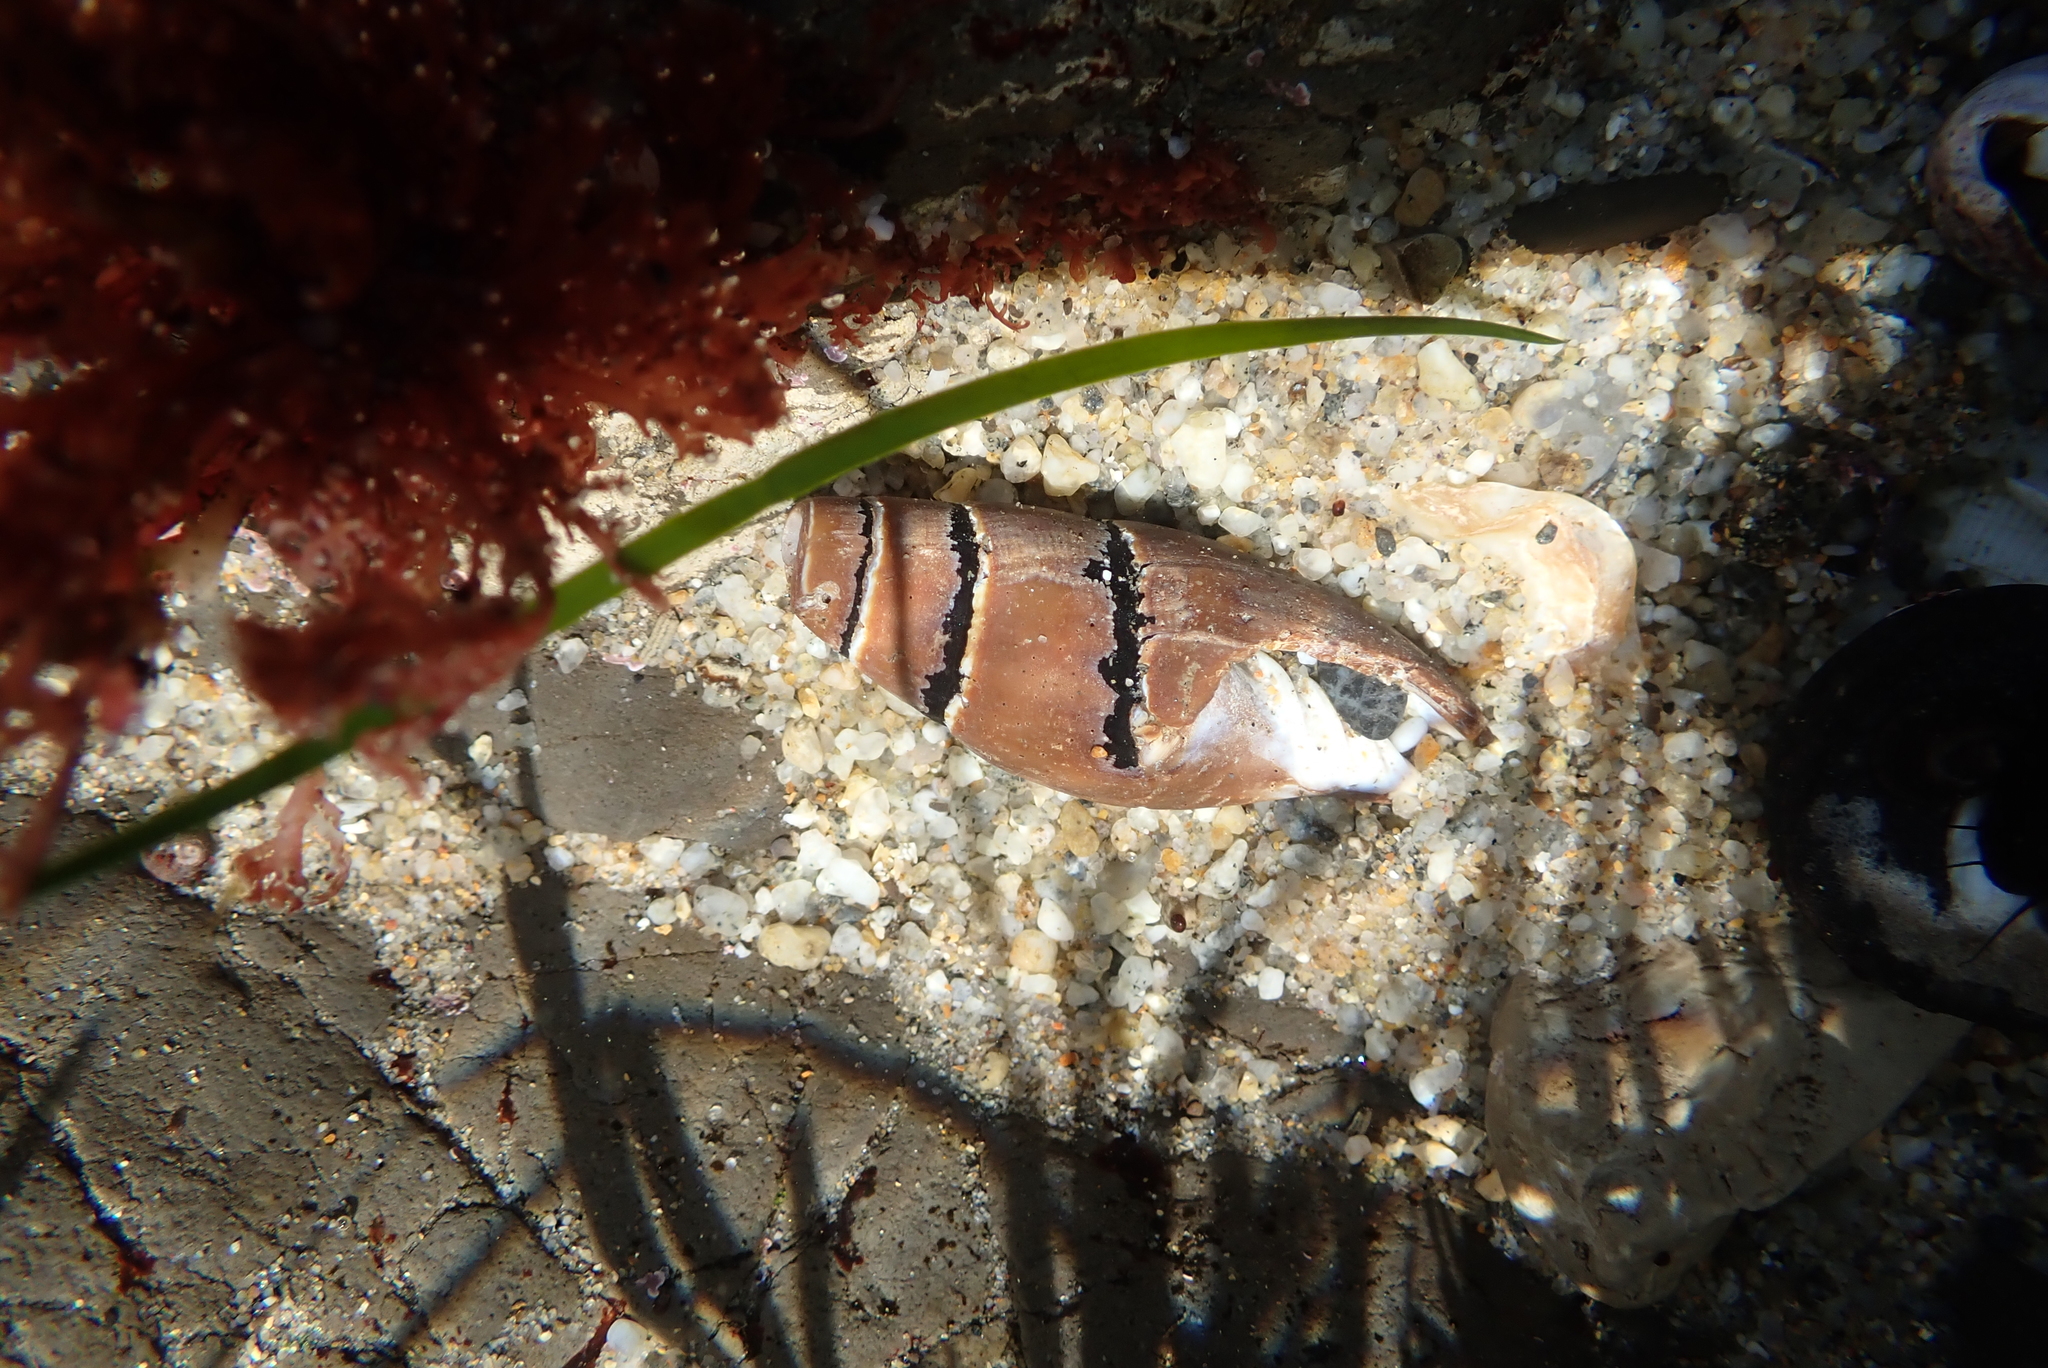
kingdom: Animalia
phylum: Mollusca
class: Gastropoda
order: Neogastropoda
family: Mitridae
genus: Atrimitra
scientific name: Atrimitra idae
